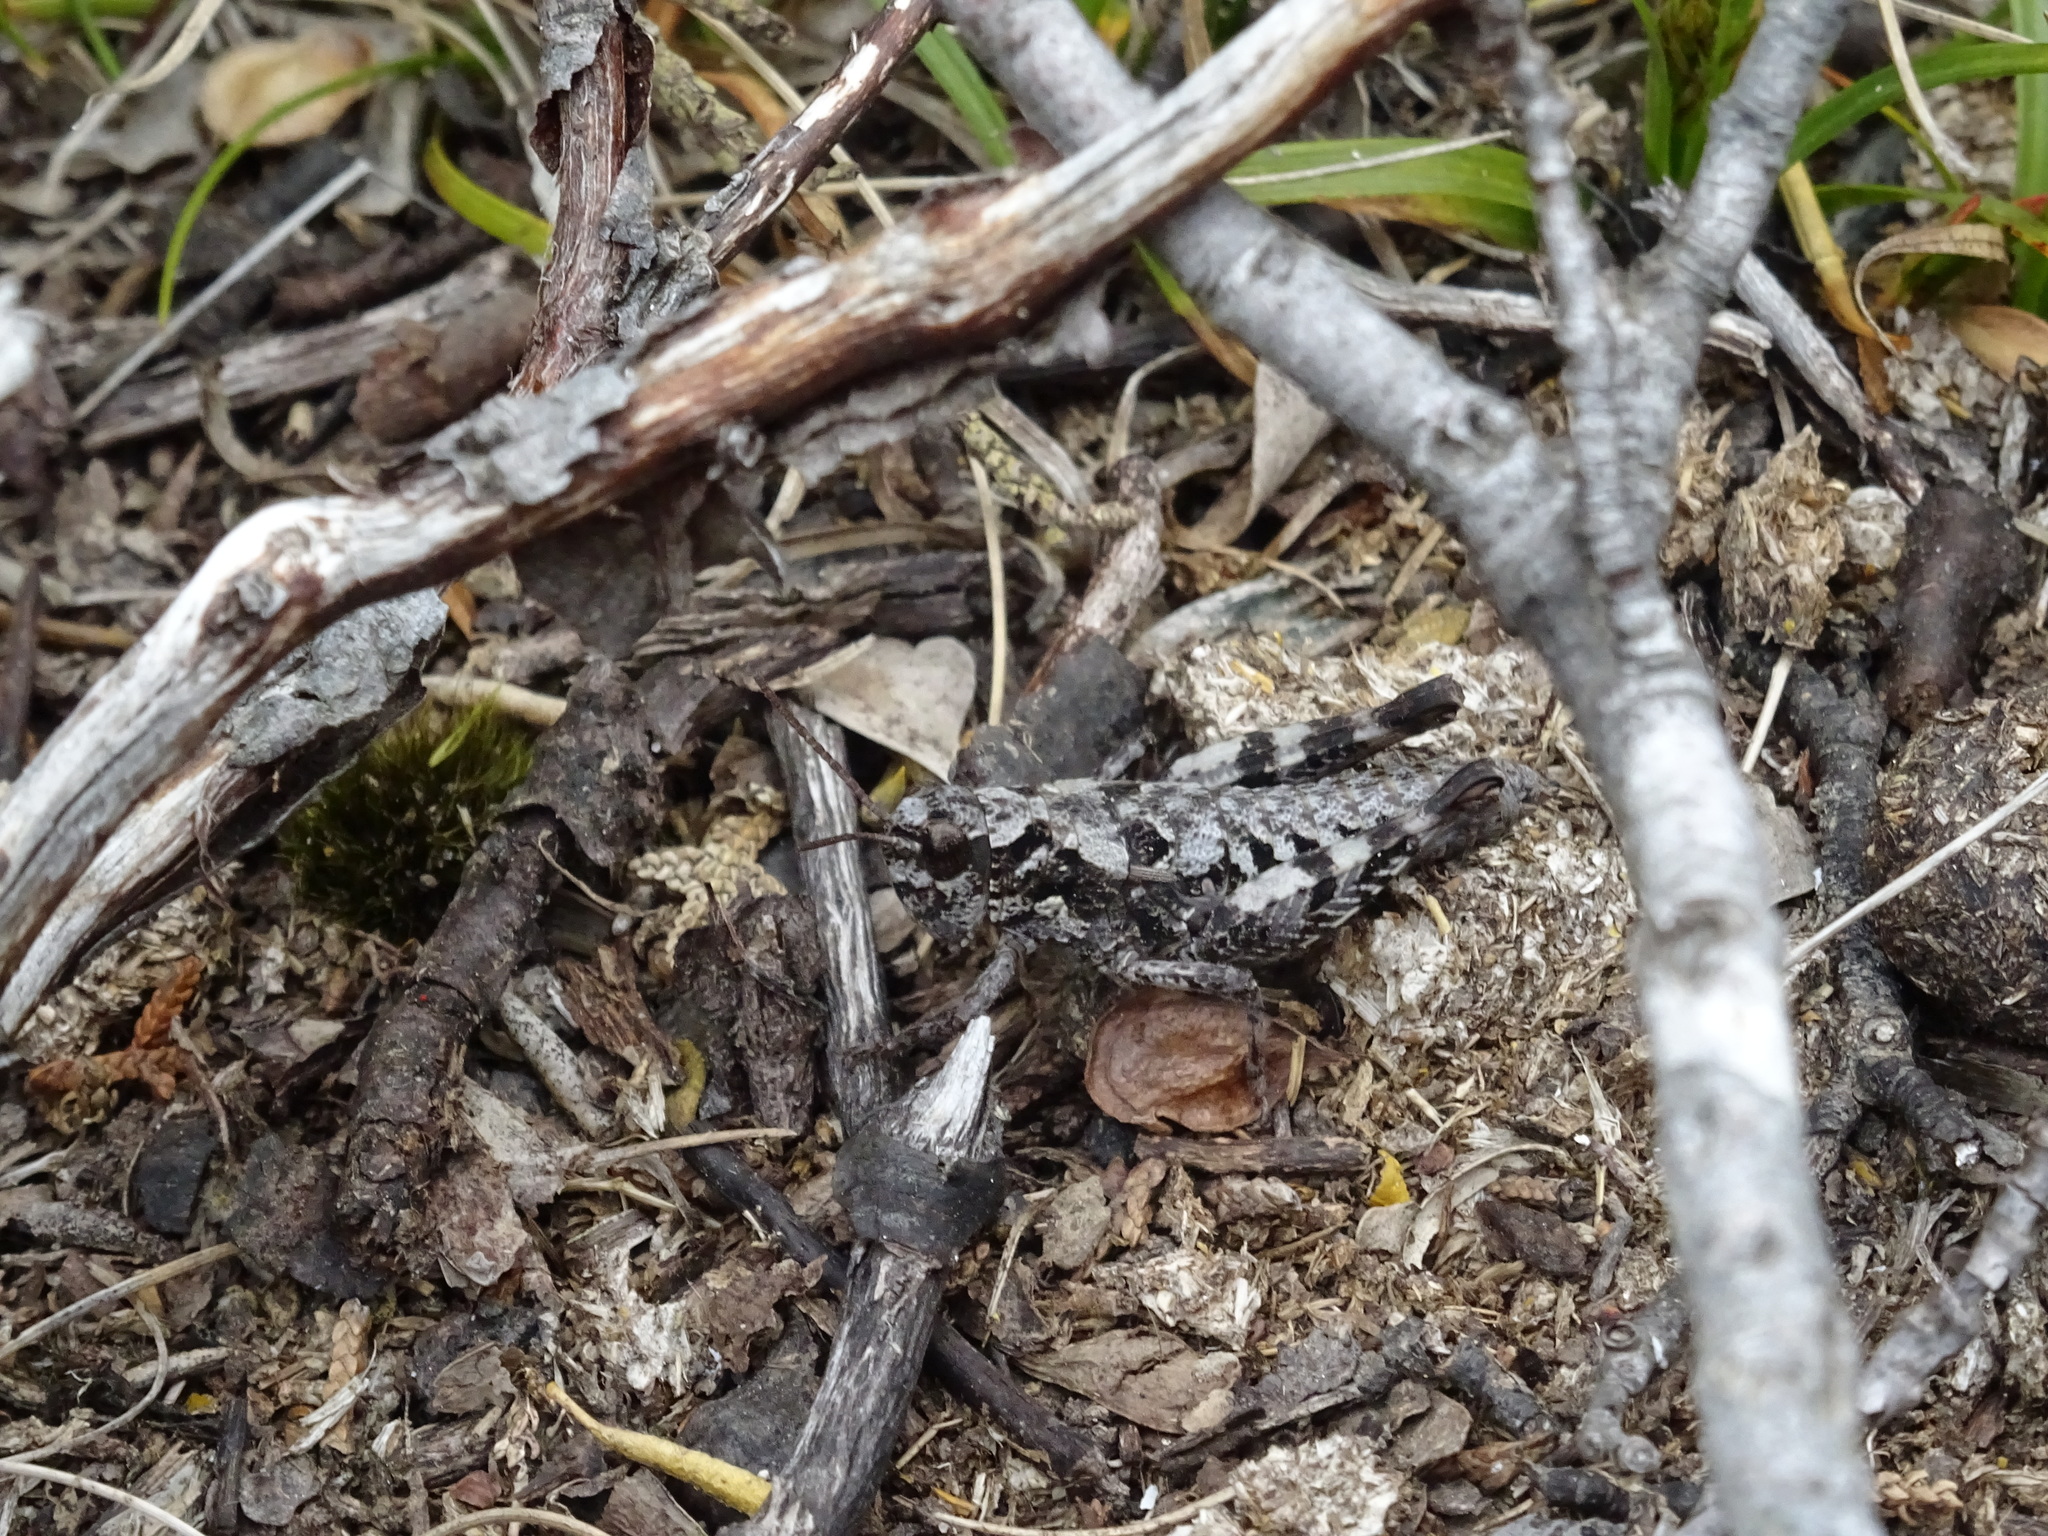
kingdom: Animalia
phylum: Arthropoda
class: Insecta
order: Orthoptera
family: Acrididae
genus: Tasmaniacris
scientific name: Tasmaniacris tasmaniensis
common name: Tasmanian grasshopper
